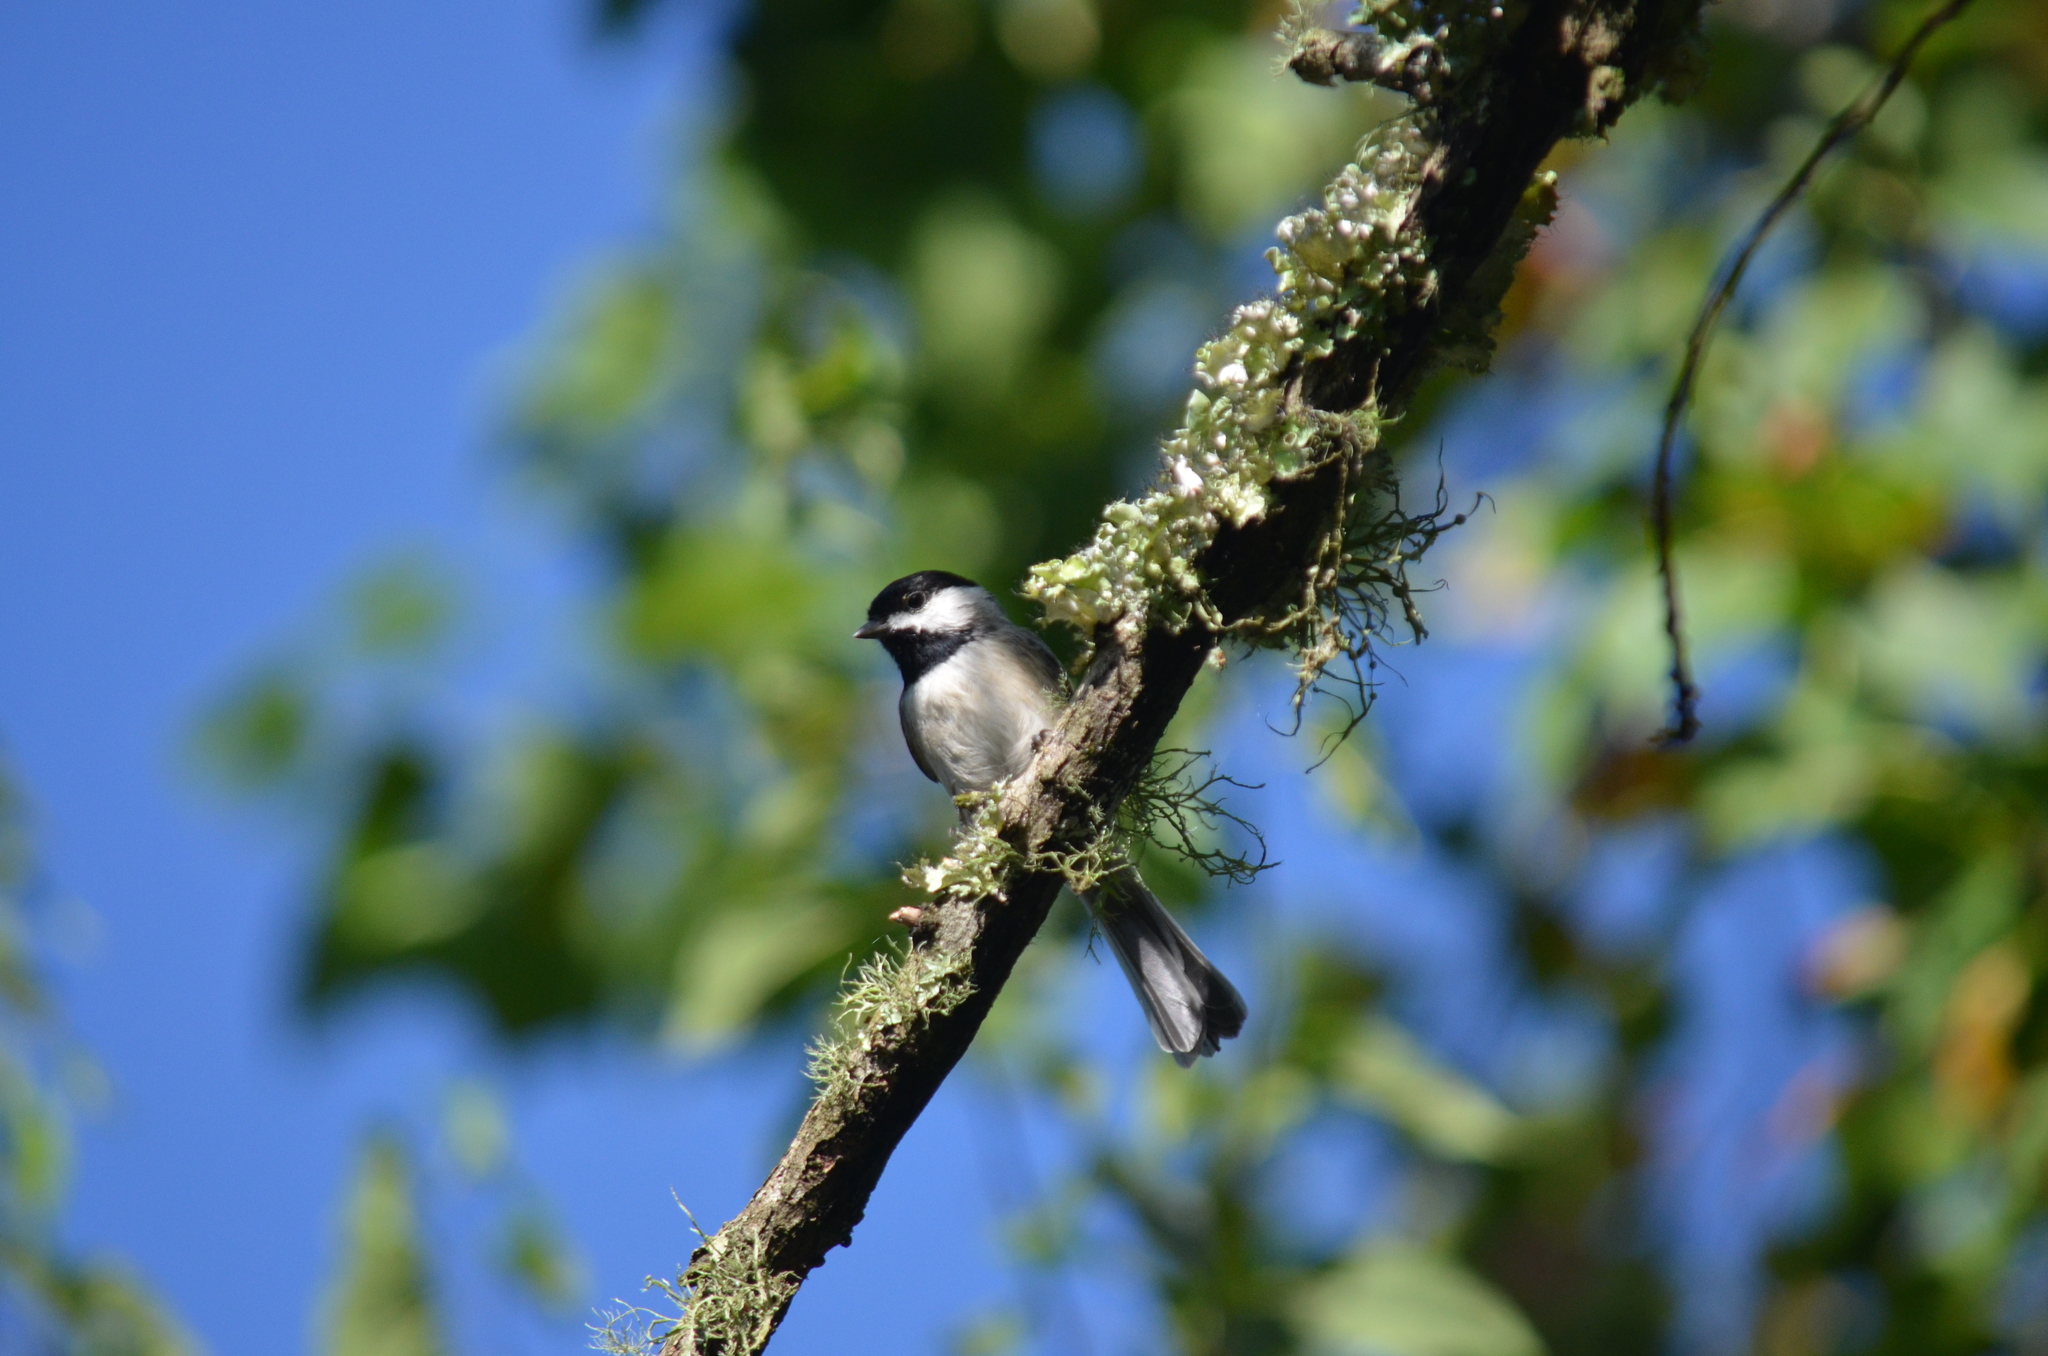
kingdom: Animalia
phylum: Chordata
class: Aves
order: Passeriformes
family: Paridae
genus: Poecile
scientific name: Poecile carolinensis
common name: Carolina chickadee
